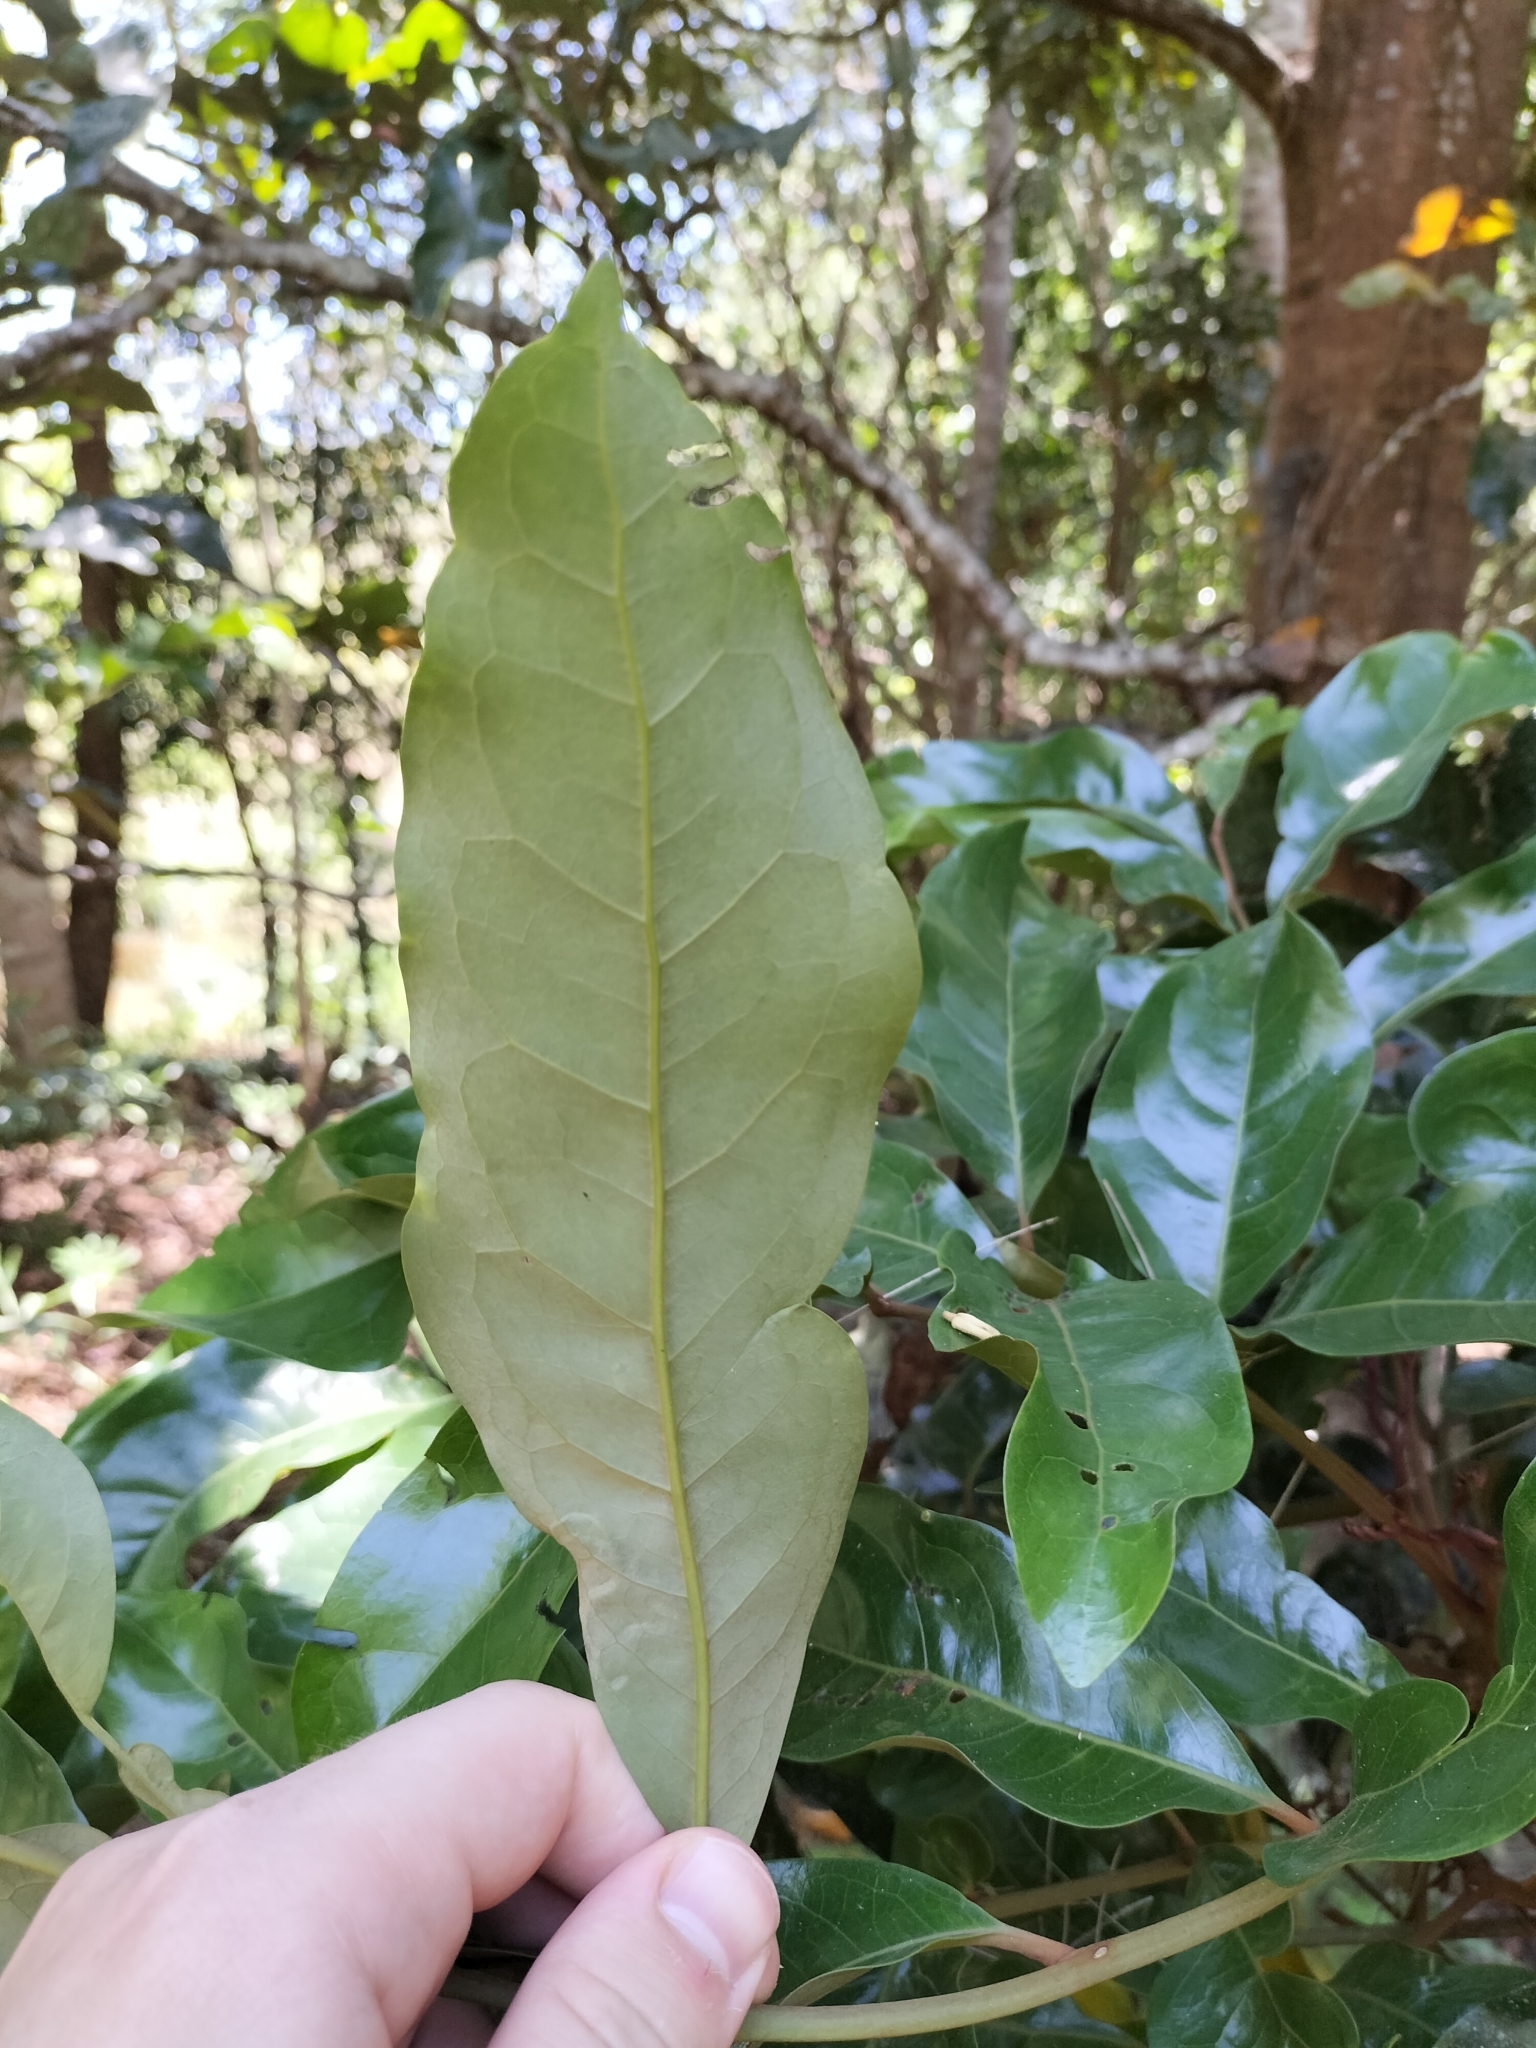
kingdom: Plantae
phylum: Tracheophyta
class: Magnoliopsida
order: Proteales
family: Proteaceae
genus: Cardwellia
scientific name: Cardwellia sublimis
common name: Bull oak
